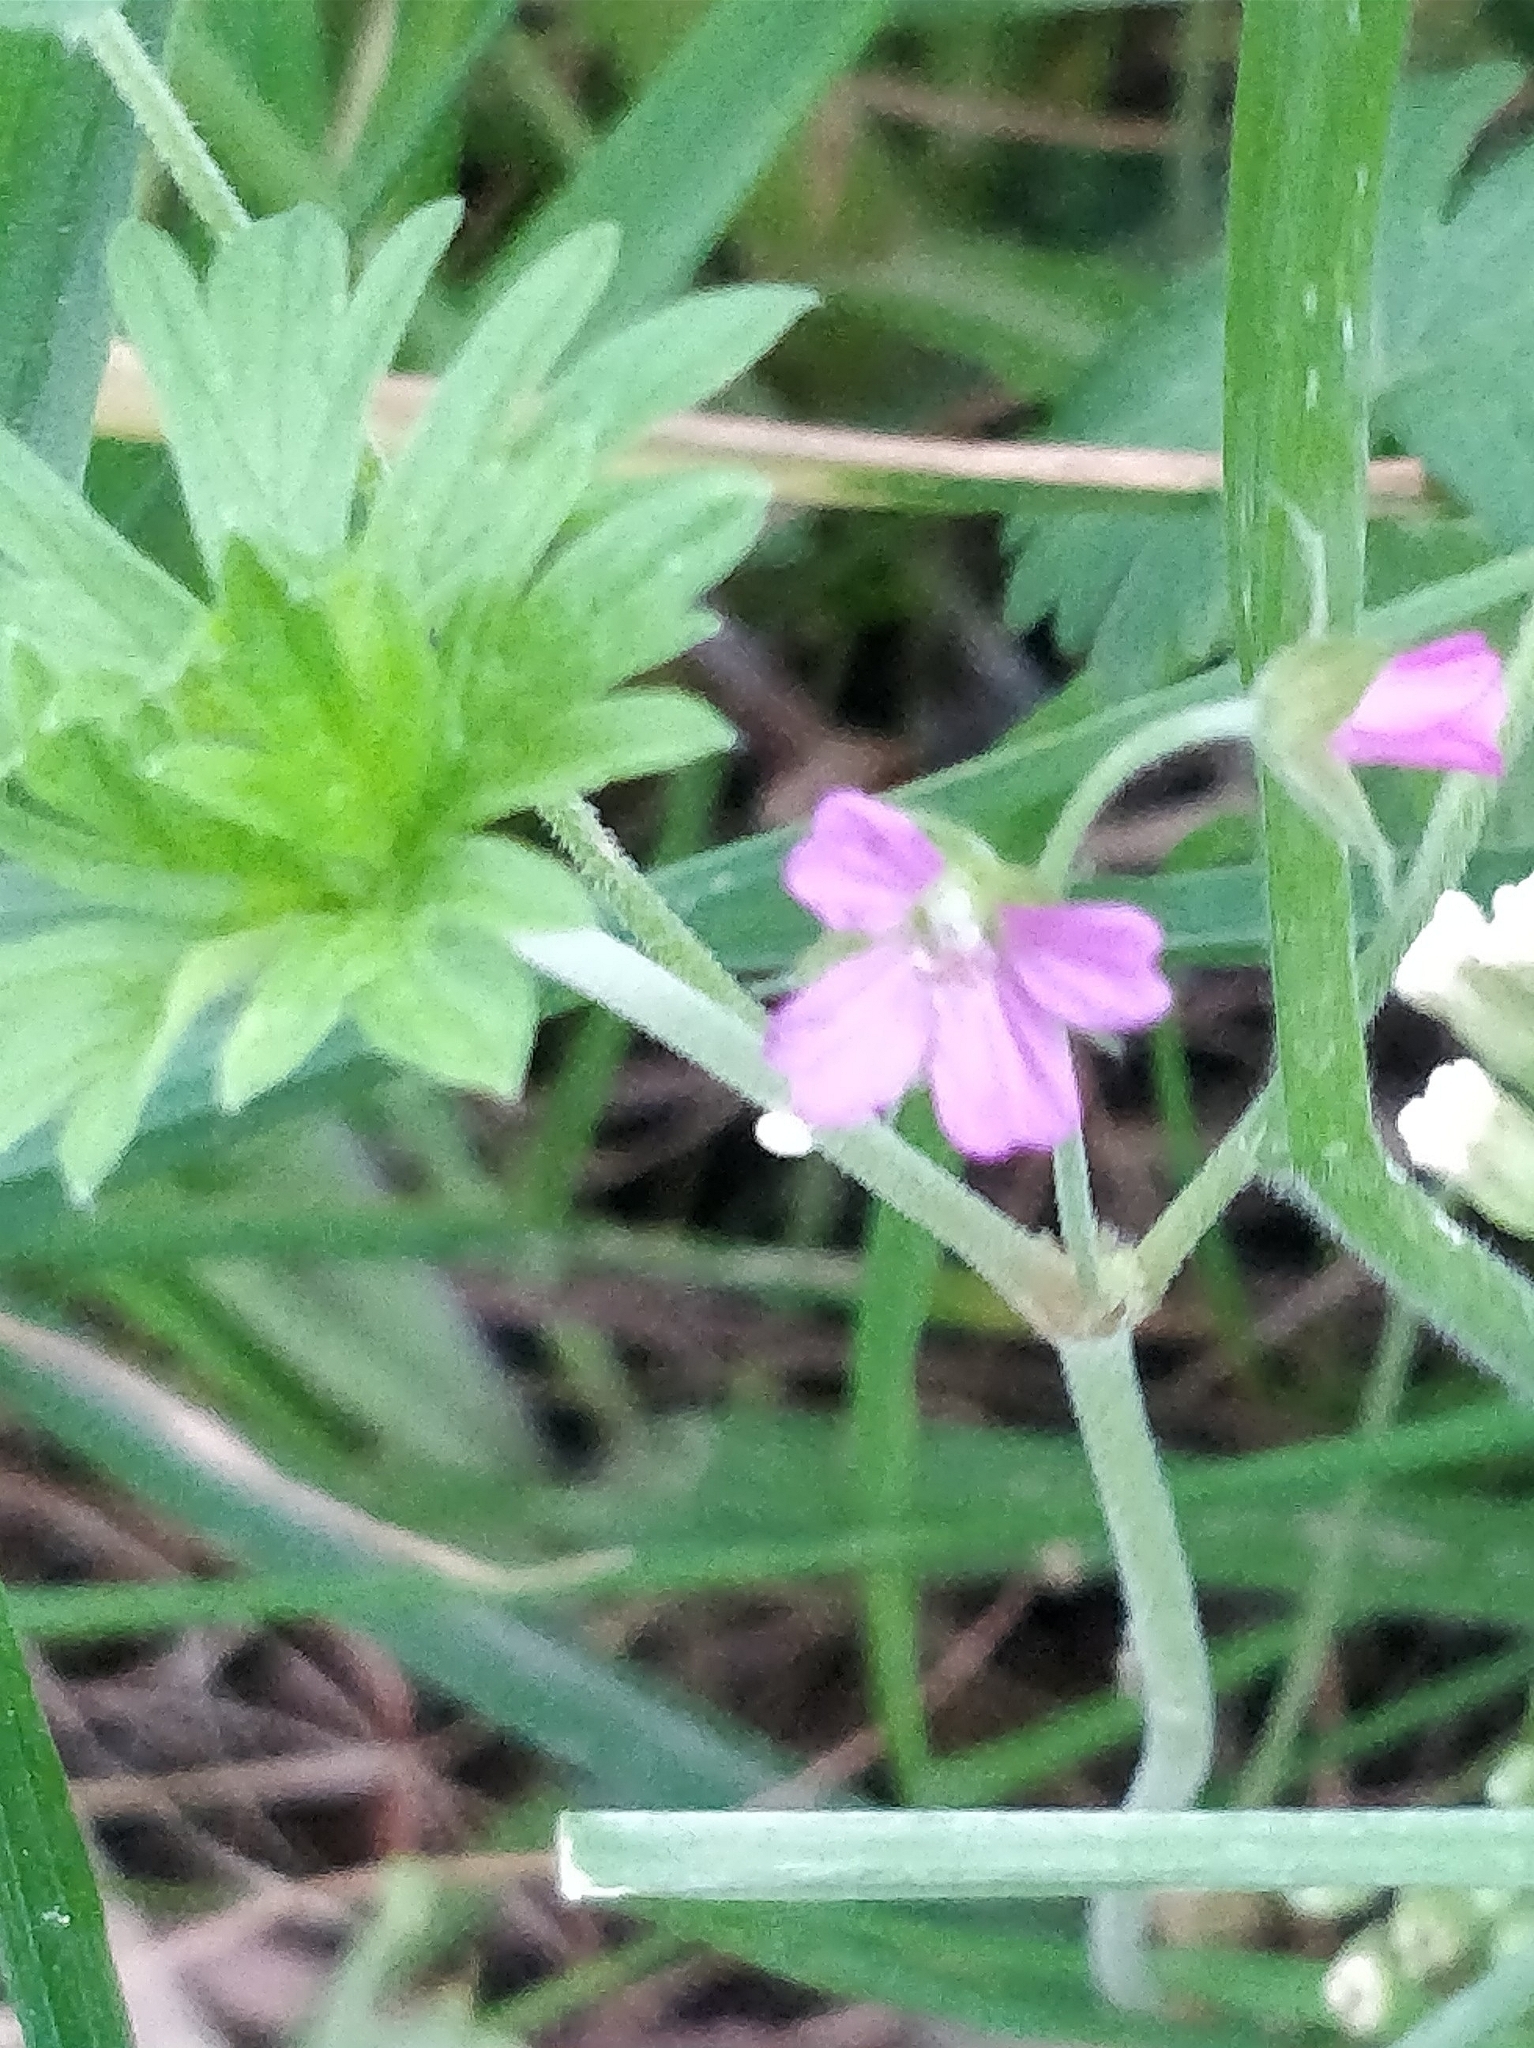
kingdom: Plantae
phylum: Tracheophyta
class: Magnoliopsida
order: Geraniales
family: Geraniaceae
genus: Geranium
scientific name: Geranium molle
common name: Dove's-foot crane's-bill
